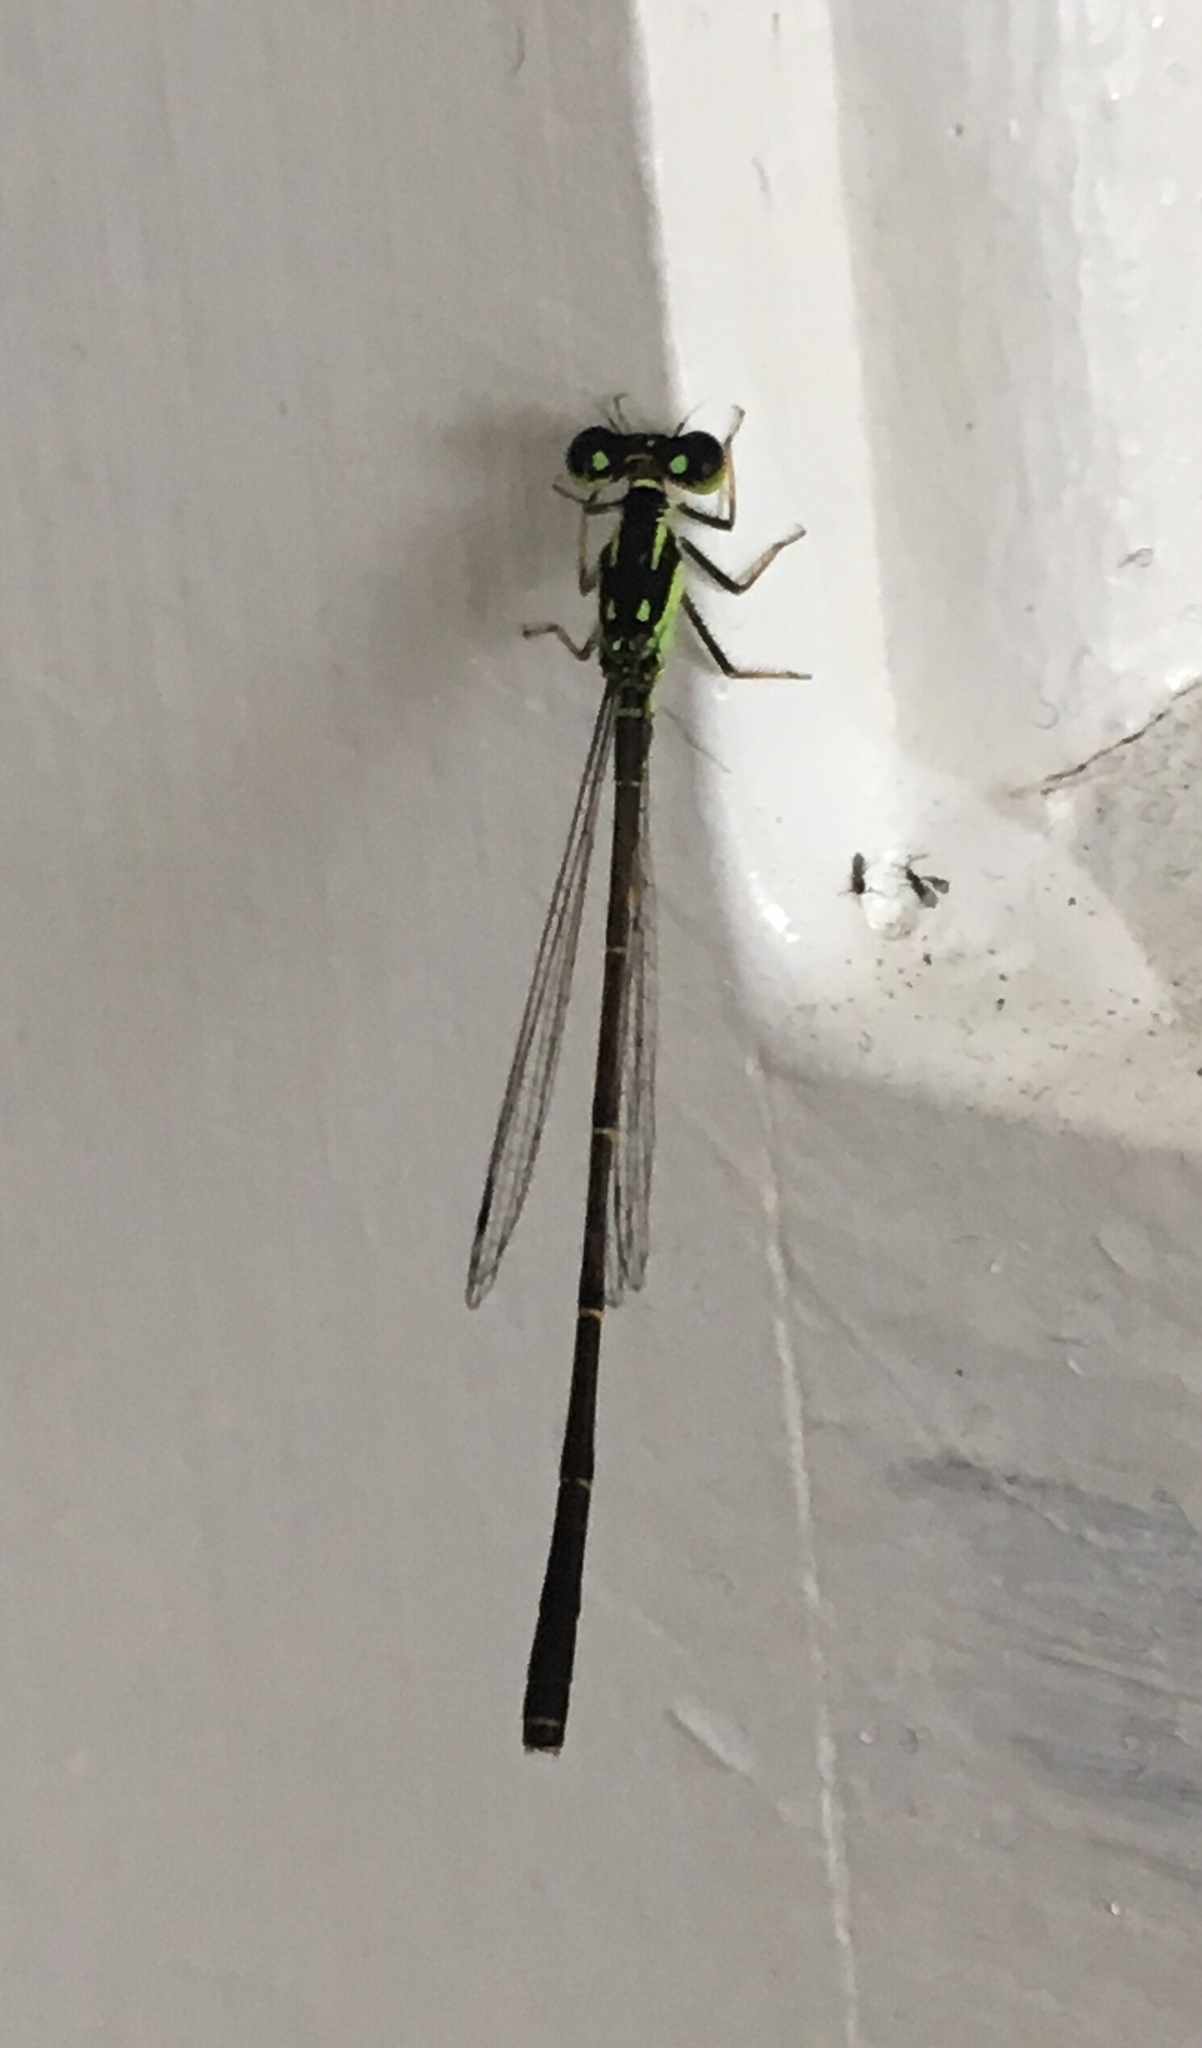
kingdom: Animalia
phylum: Arthropoda
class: Insecta
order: Odonata
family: Coenagrionidae
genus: Ischnura
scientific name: Ischnura posita
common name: Fragile forktail
